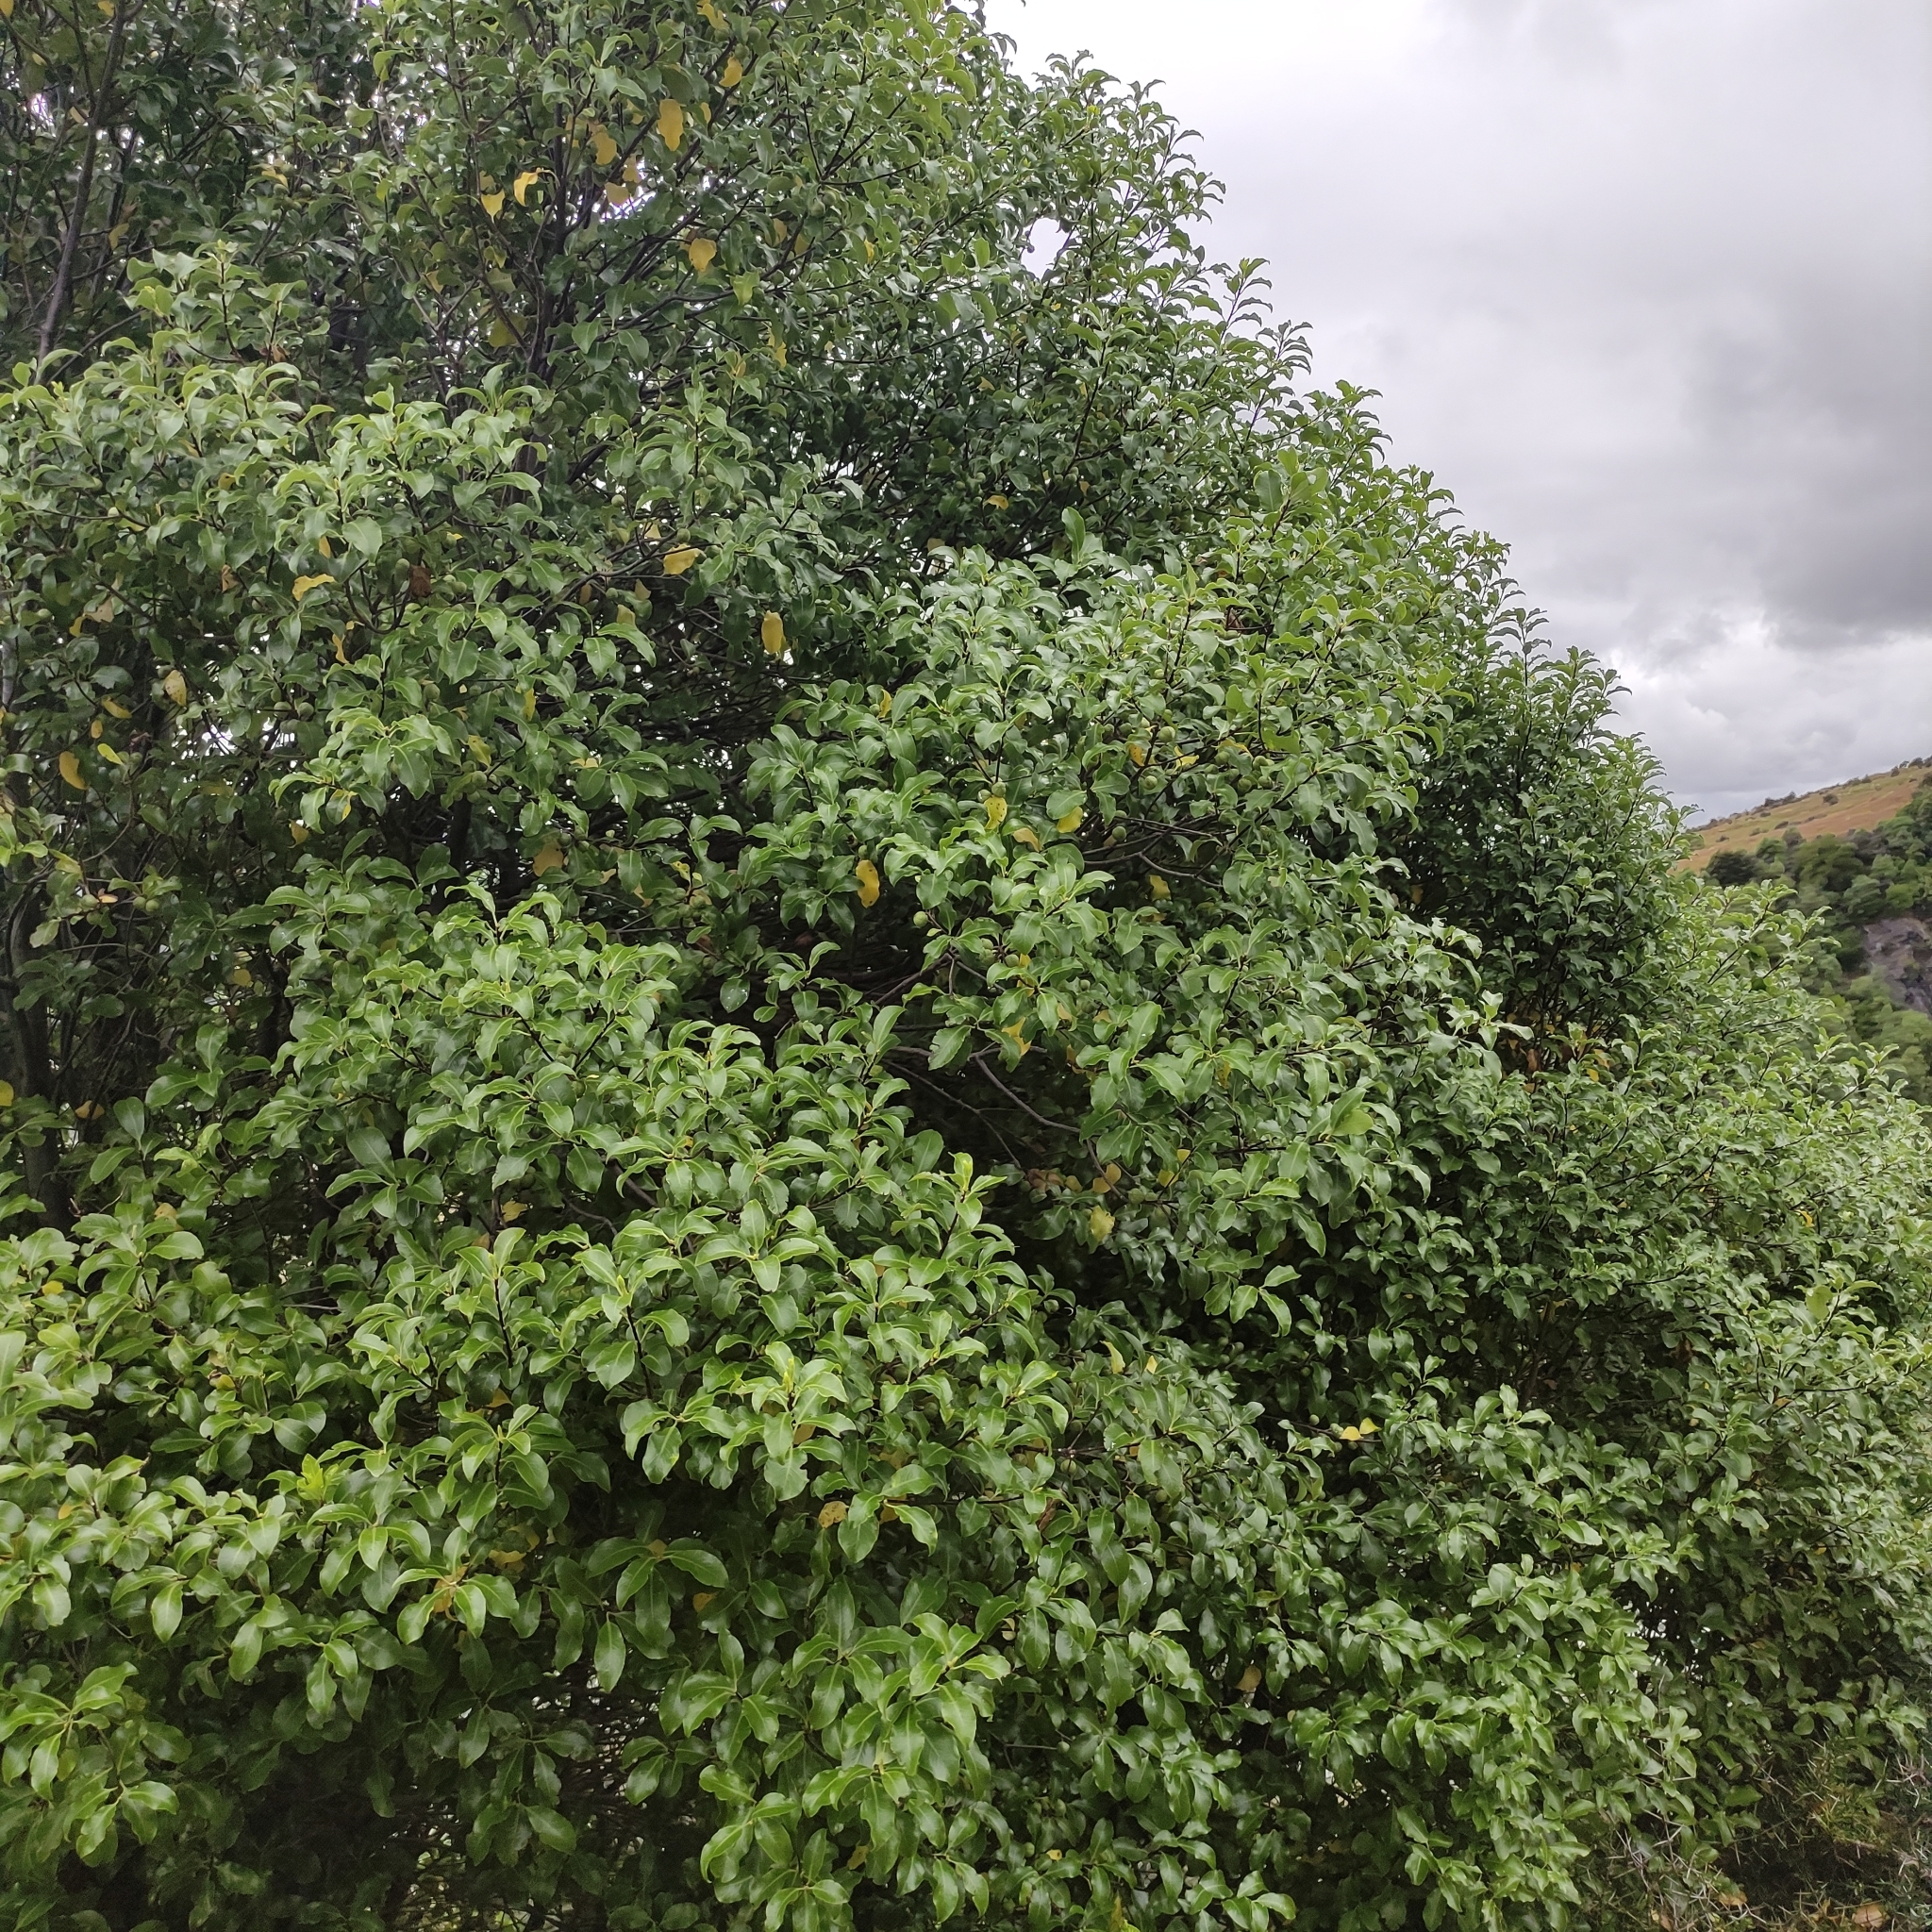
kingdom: Plantae
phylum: Tracheophyta
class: Magnoliopsida
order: Apiales
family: Pittosporaceae
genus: Pittosporum
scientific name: Pittosporum tenuifolium
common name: Kohuhu
